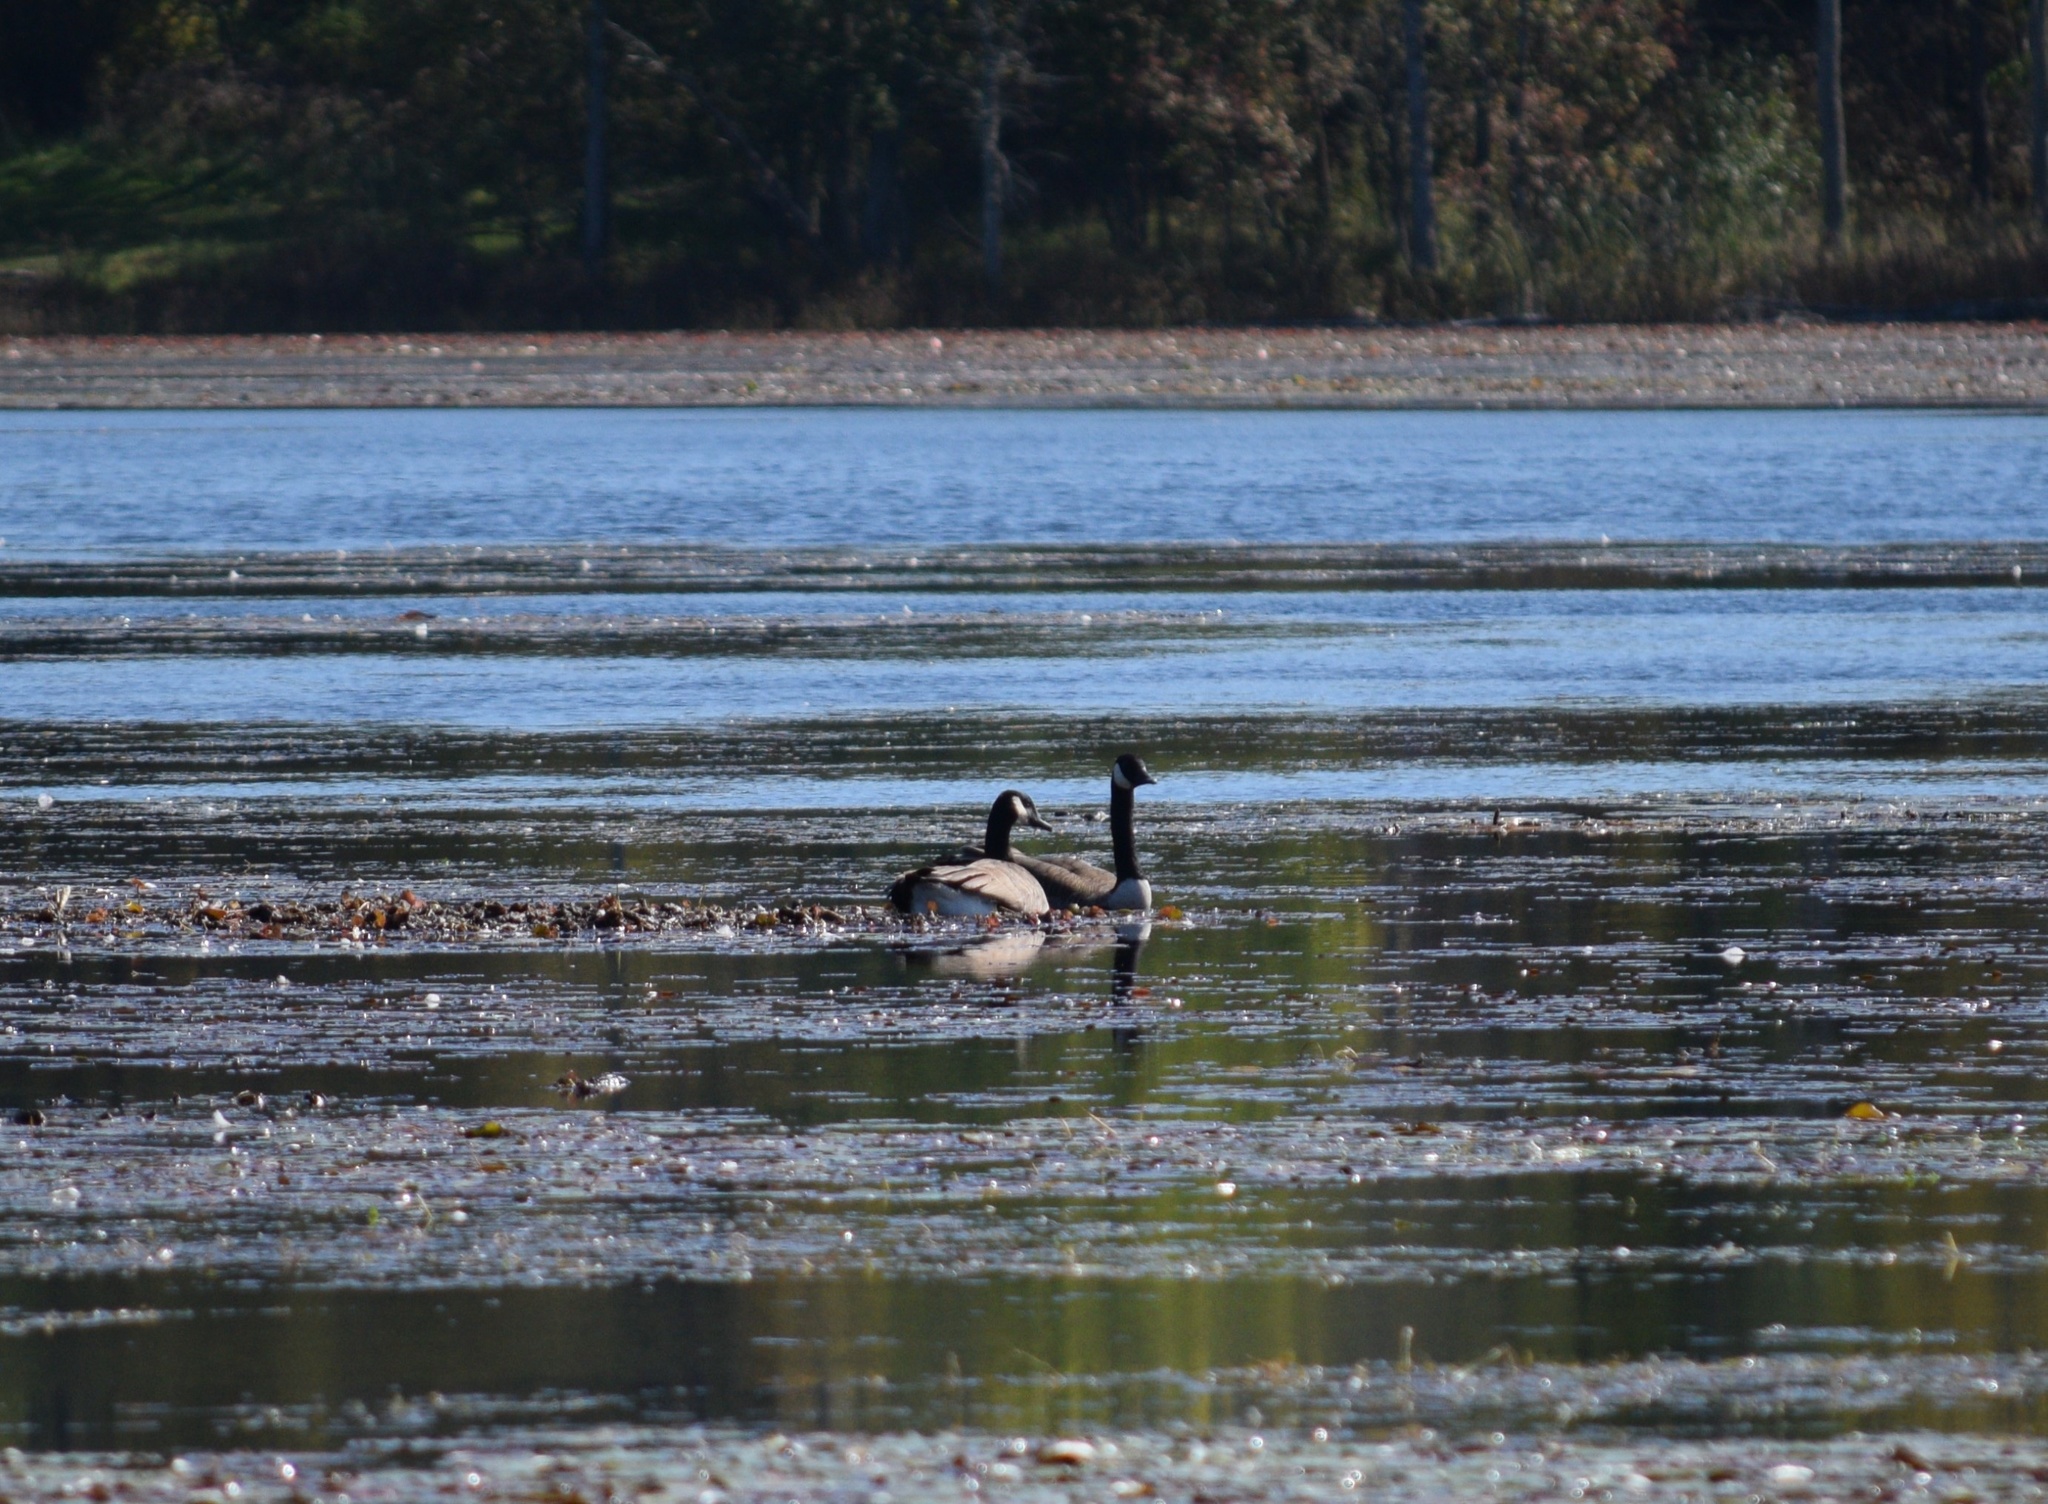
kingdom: Animalia
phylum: Chordata
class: Aves
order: Anseriformes
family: Anatidae
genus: Branta
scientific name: Branta canadensis
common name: Canada goose
